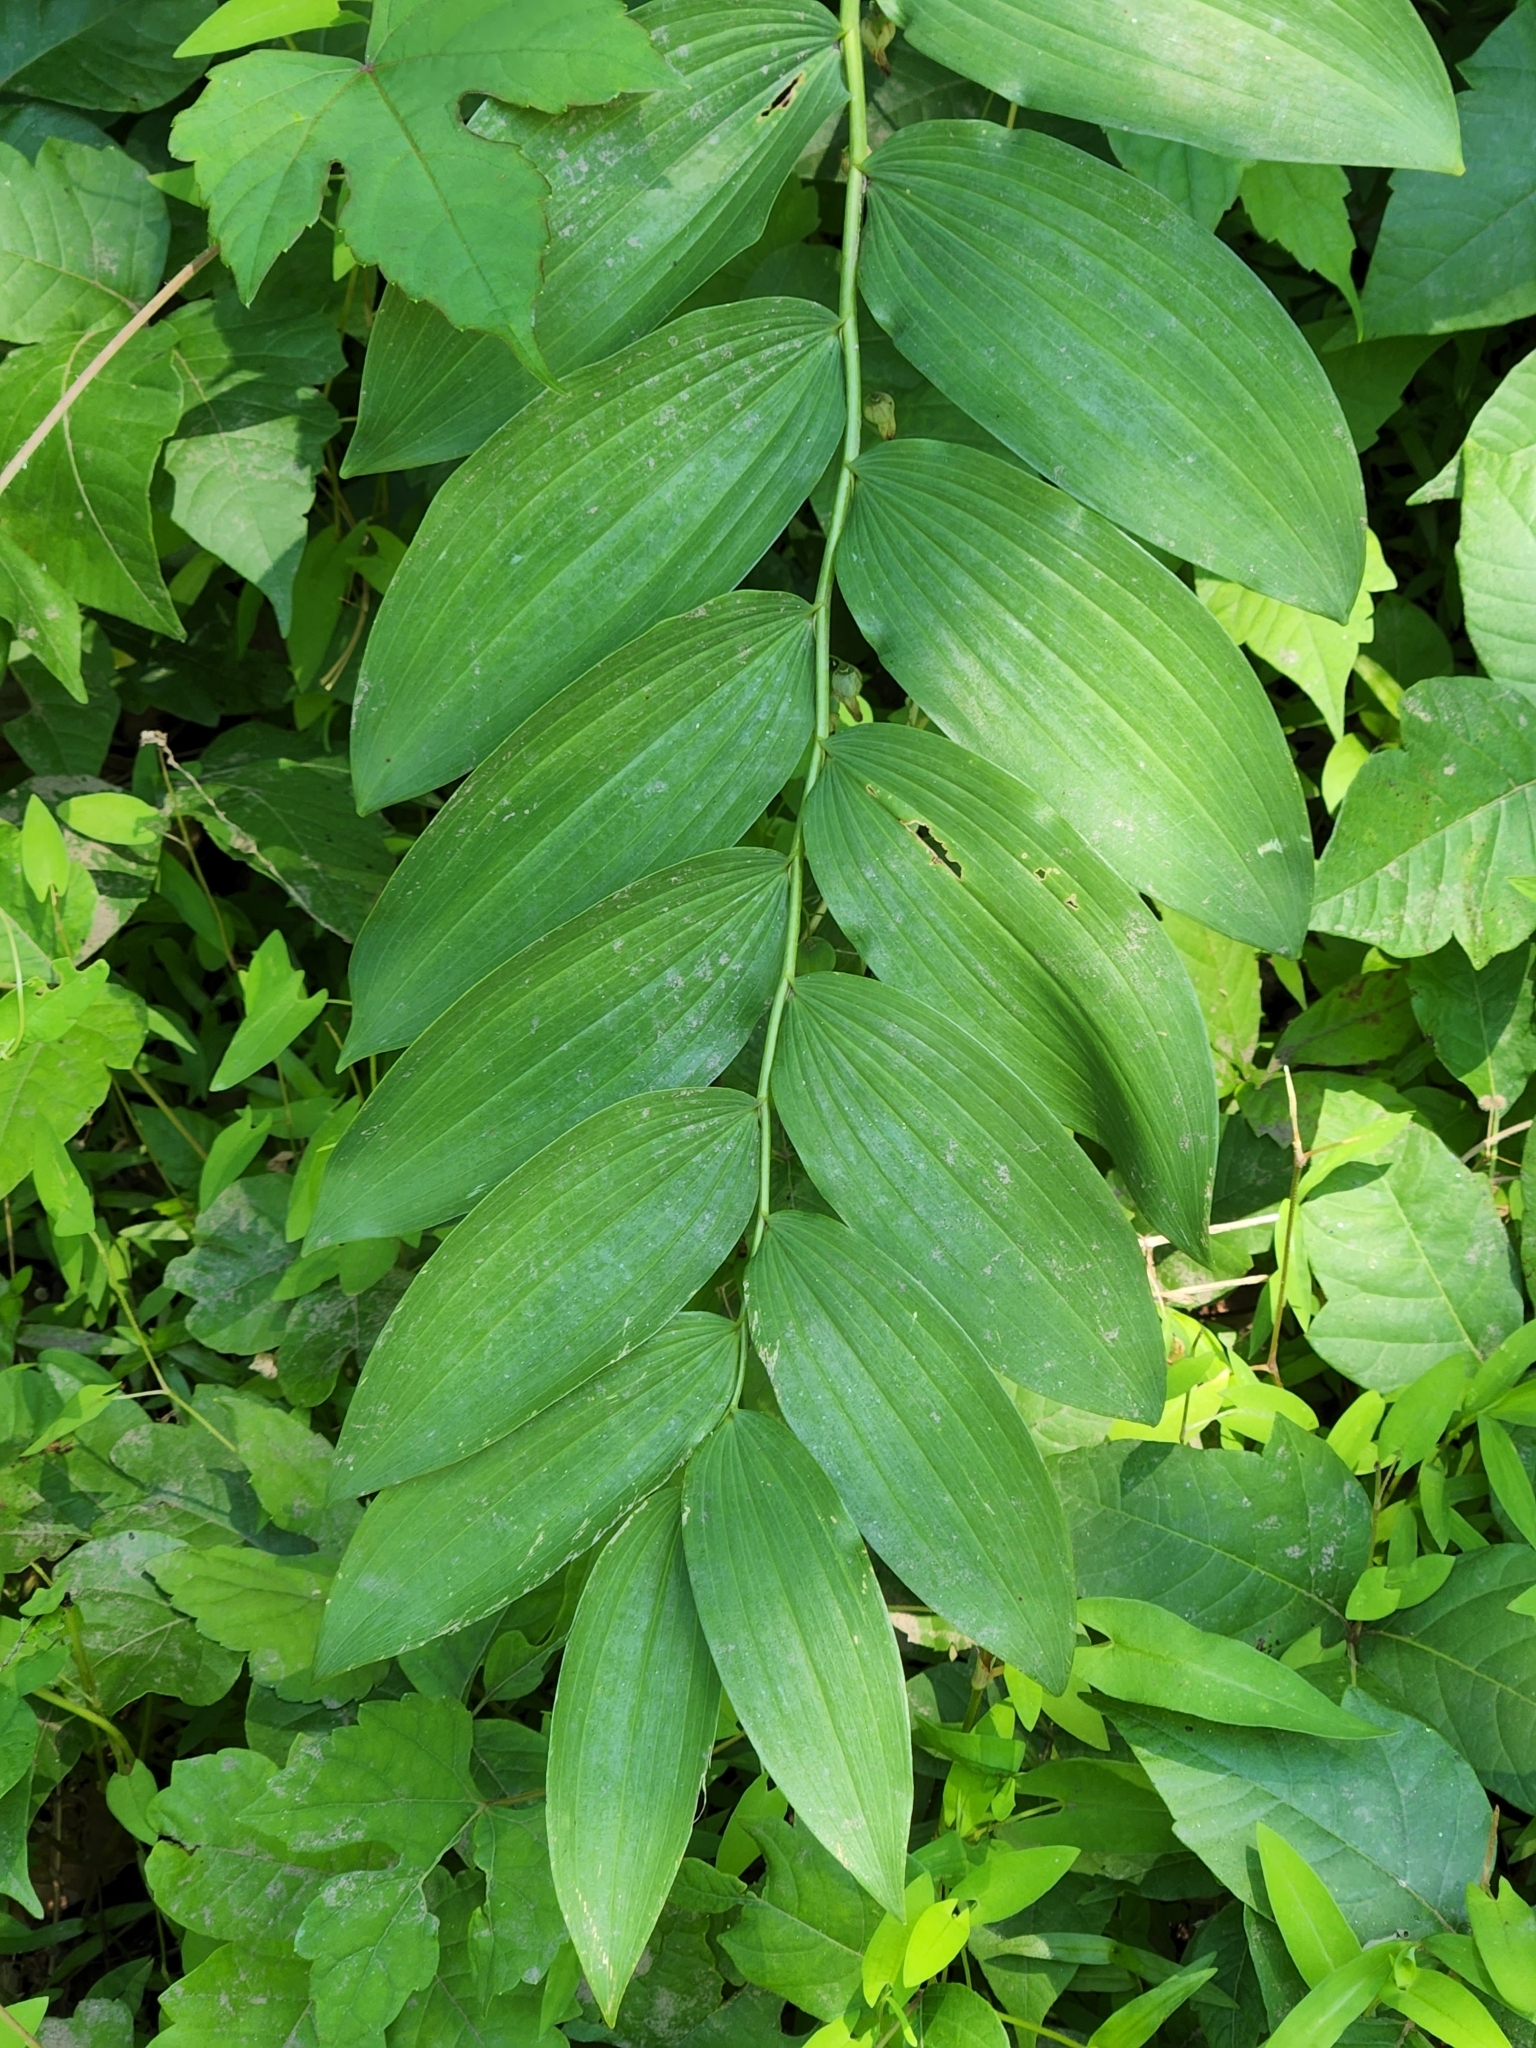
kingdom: Plantae
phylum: Tracheophyta
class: Liliopsida
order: Asparagales
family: Asparagaceae
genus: Polygonatum
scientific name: Polygonatum biflorum
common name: American solomon's-seal
